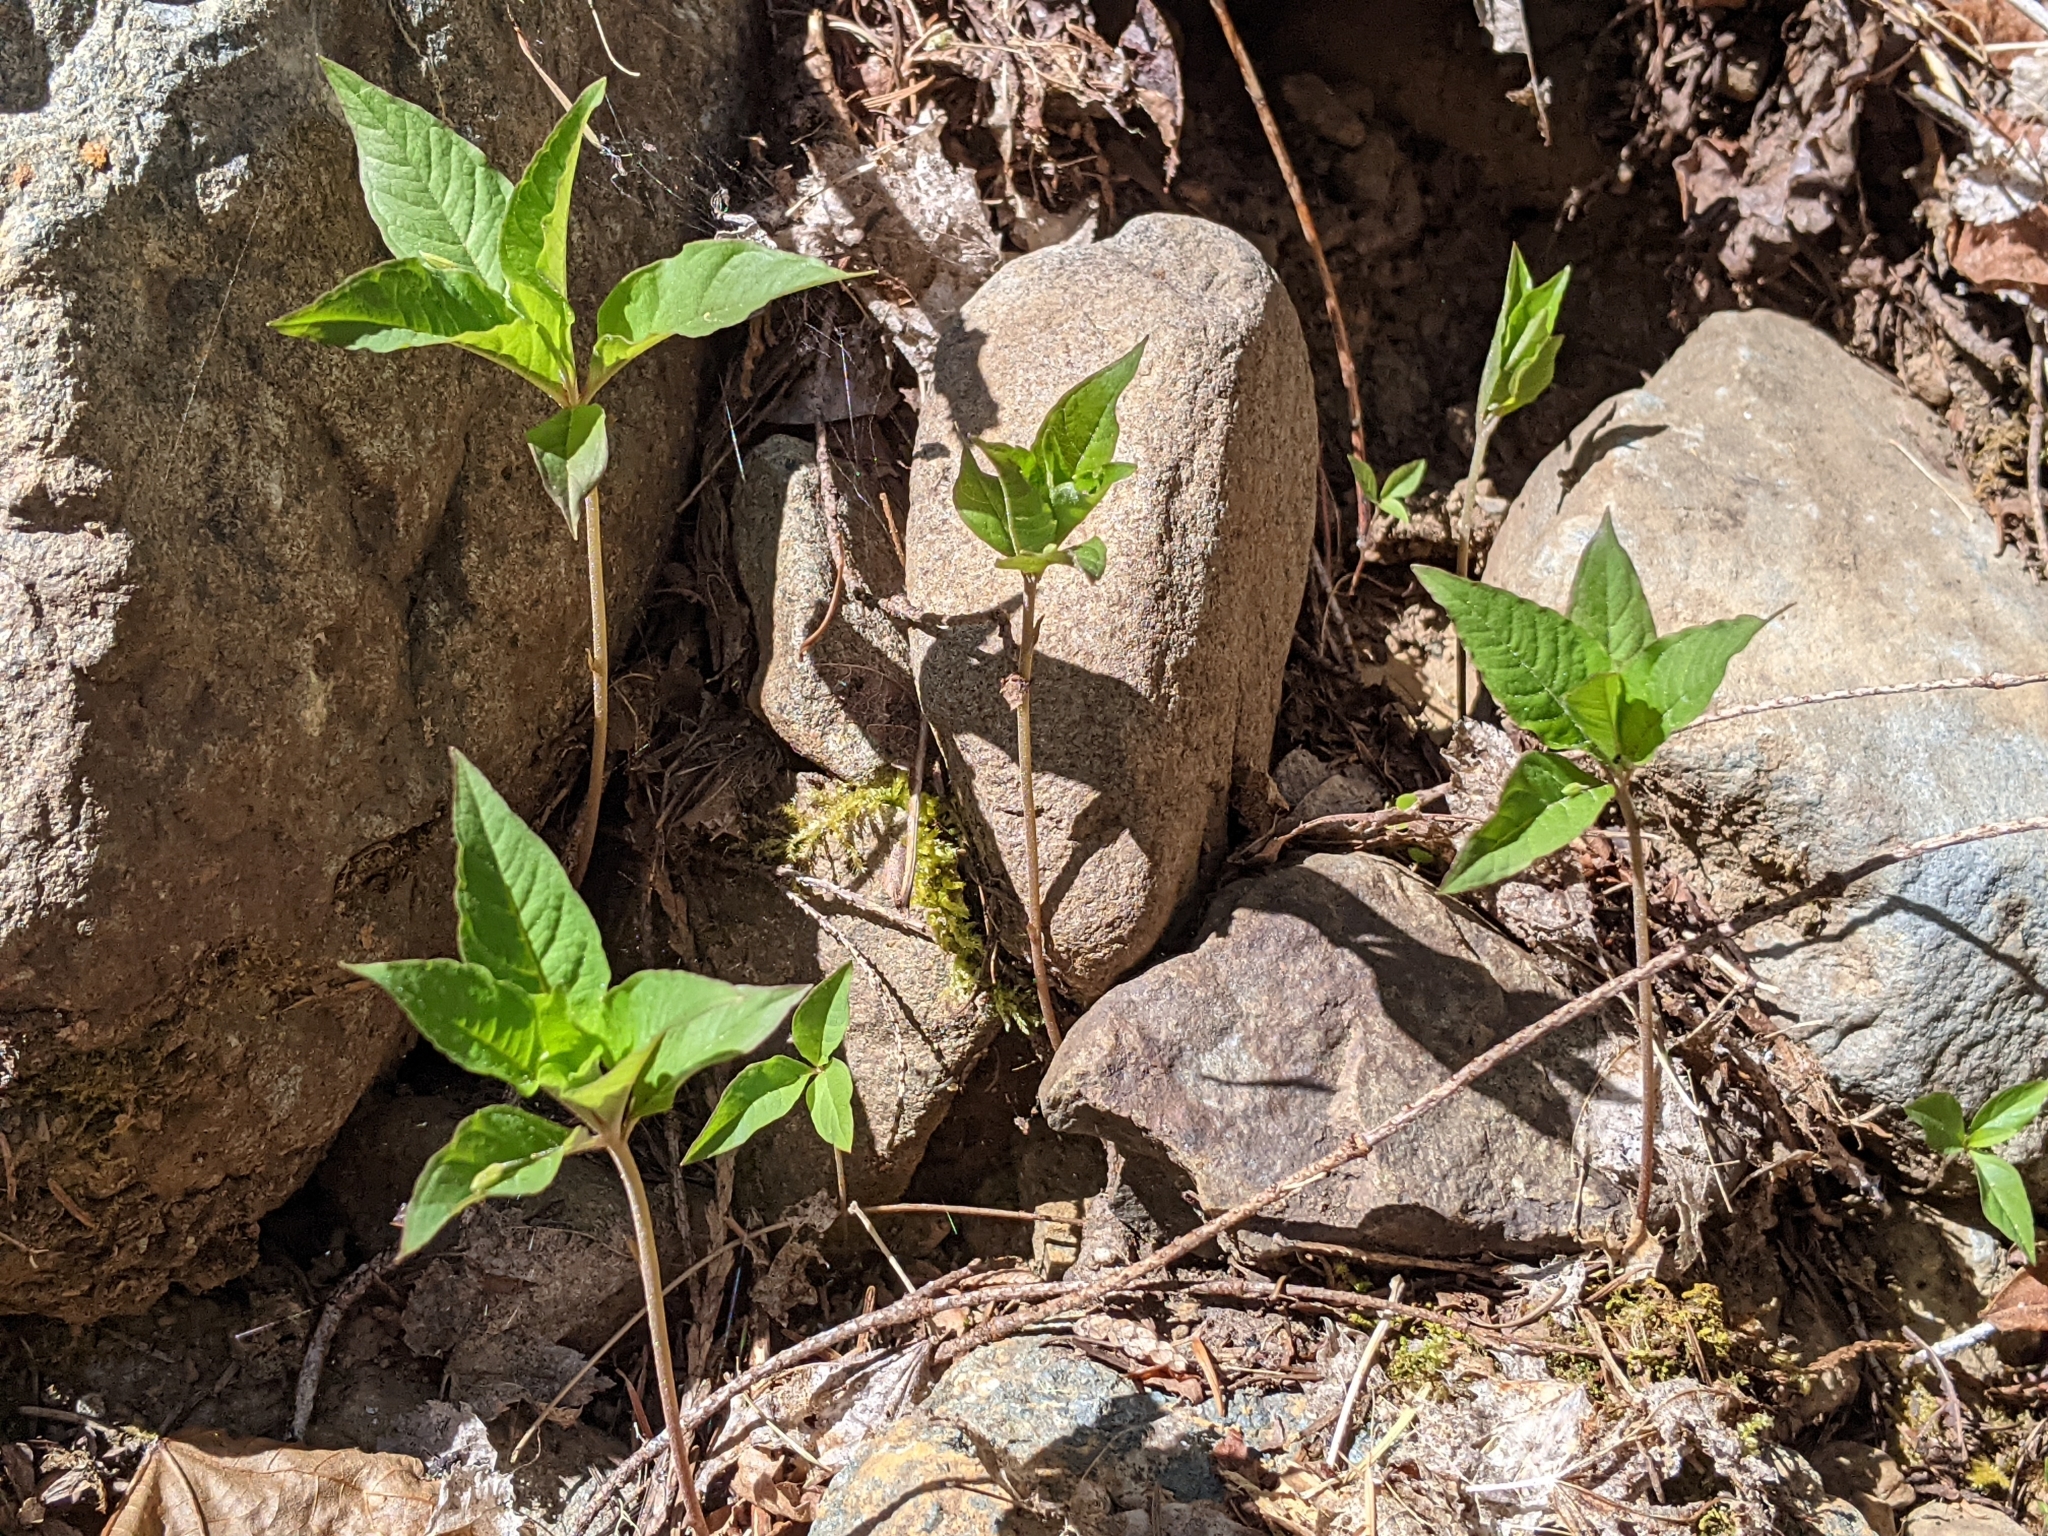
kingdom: Plantae
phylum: Tracheophyta
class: Magnoliopsida
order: Ericales
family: Primulaceae
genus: Lysimachia
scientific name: Lysimachia latifolia
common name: Pacific starflower
